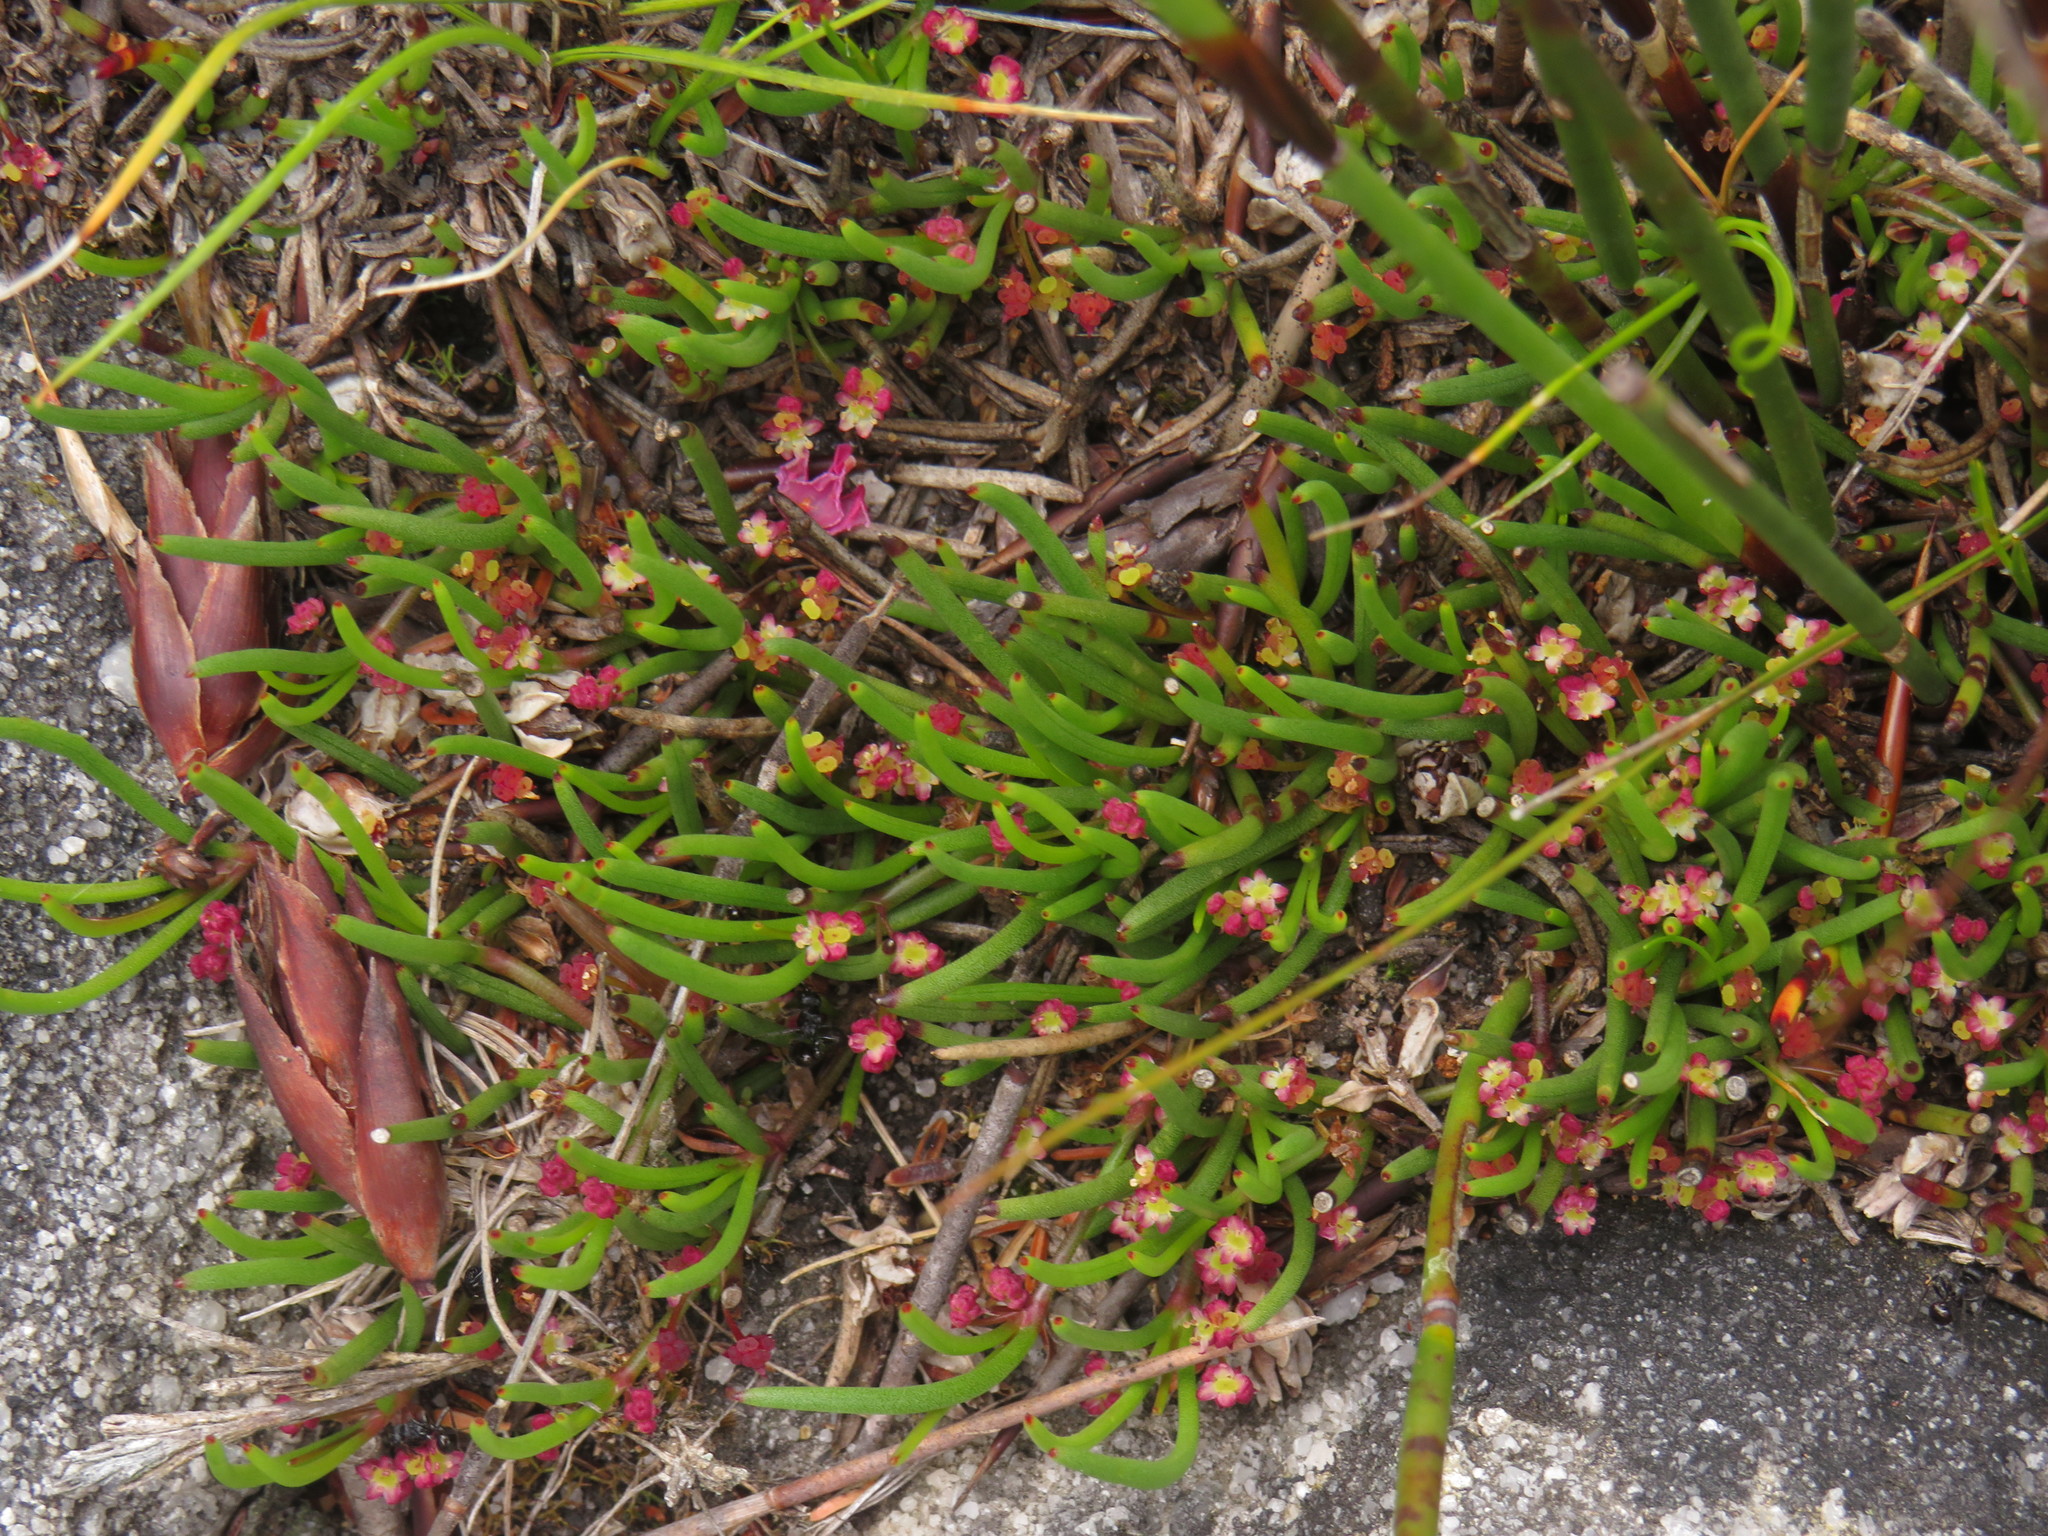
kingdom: Plantae
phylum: Tracheophyta
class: Magnoliopsida
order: Apiales
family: Apiaceae
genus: Centella
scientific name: Centella caespitosa
